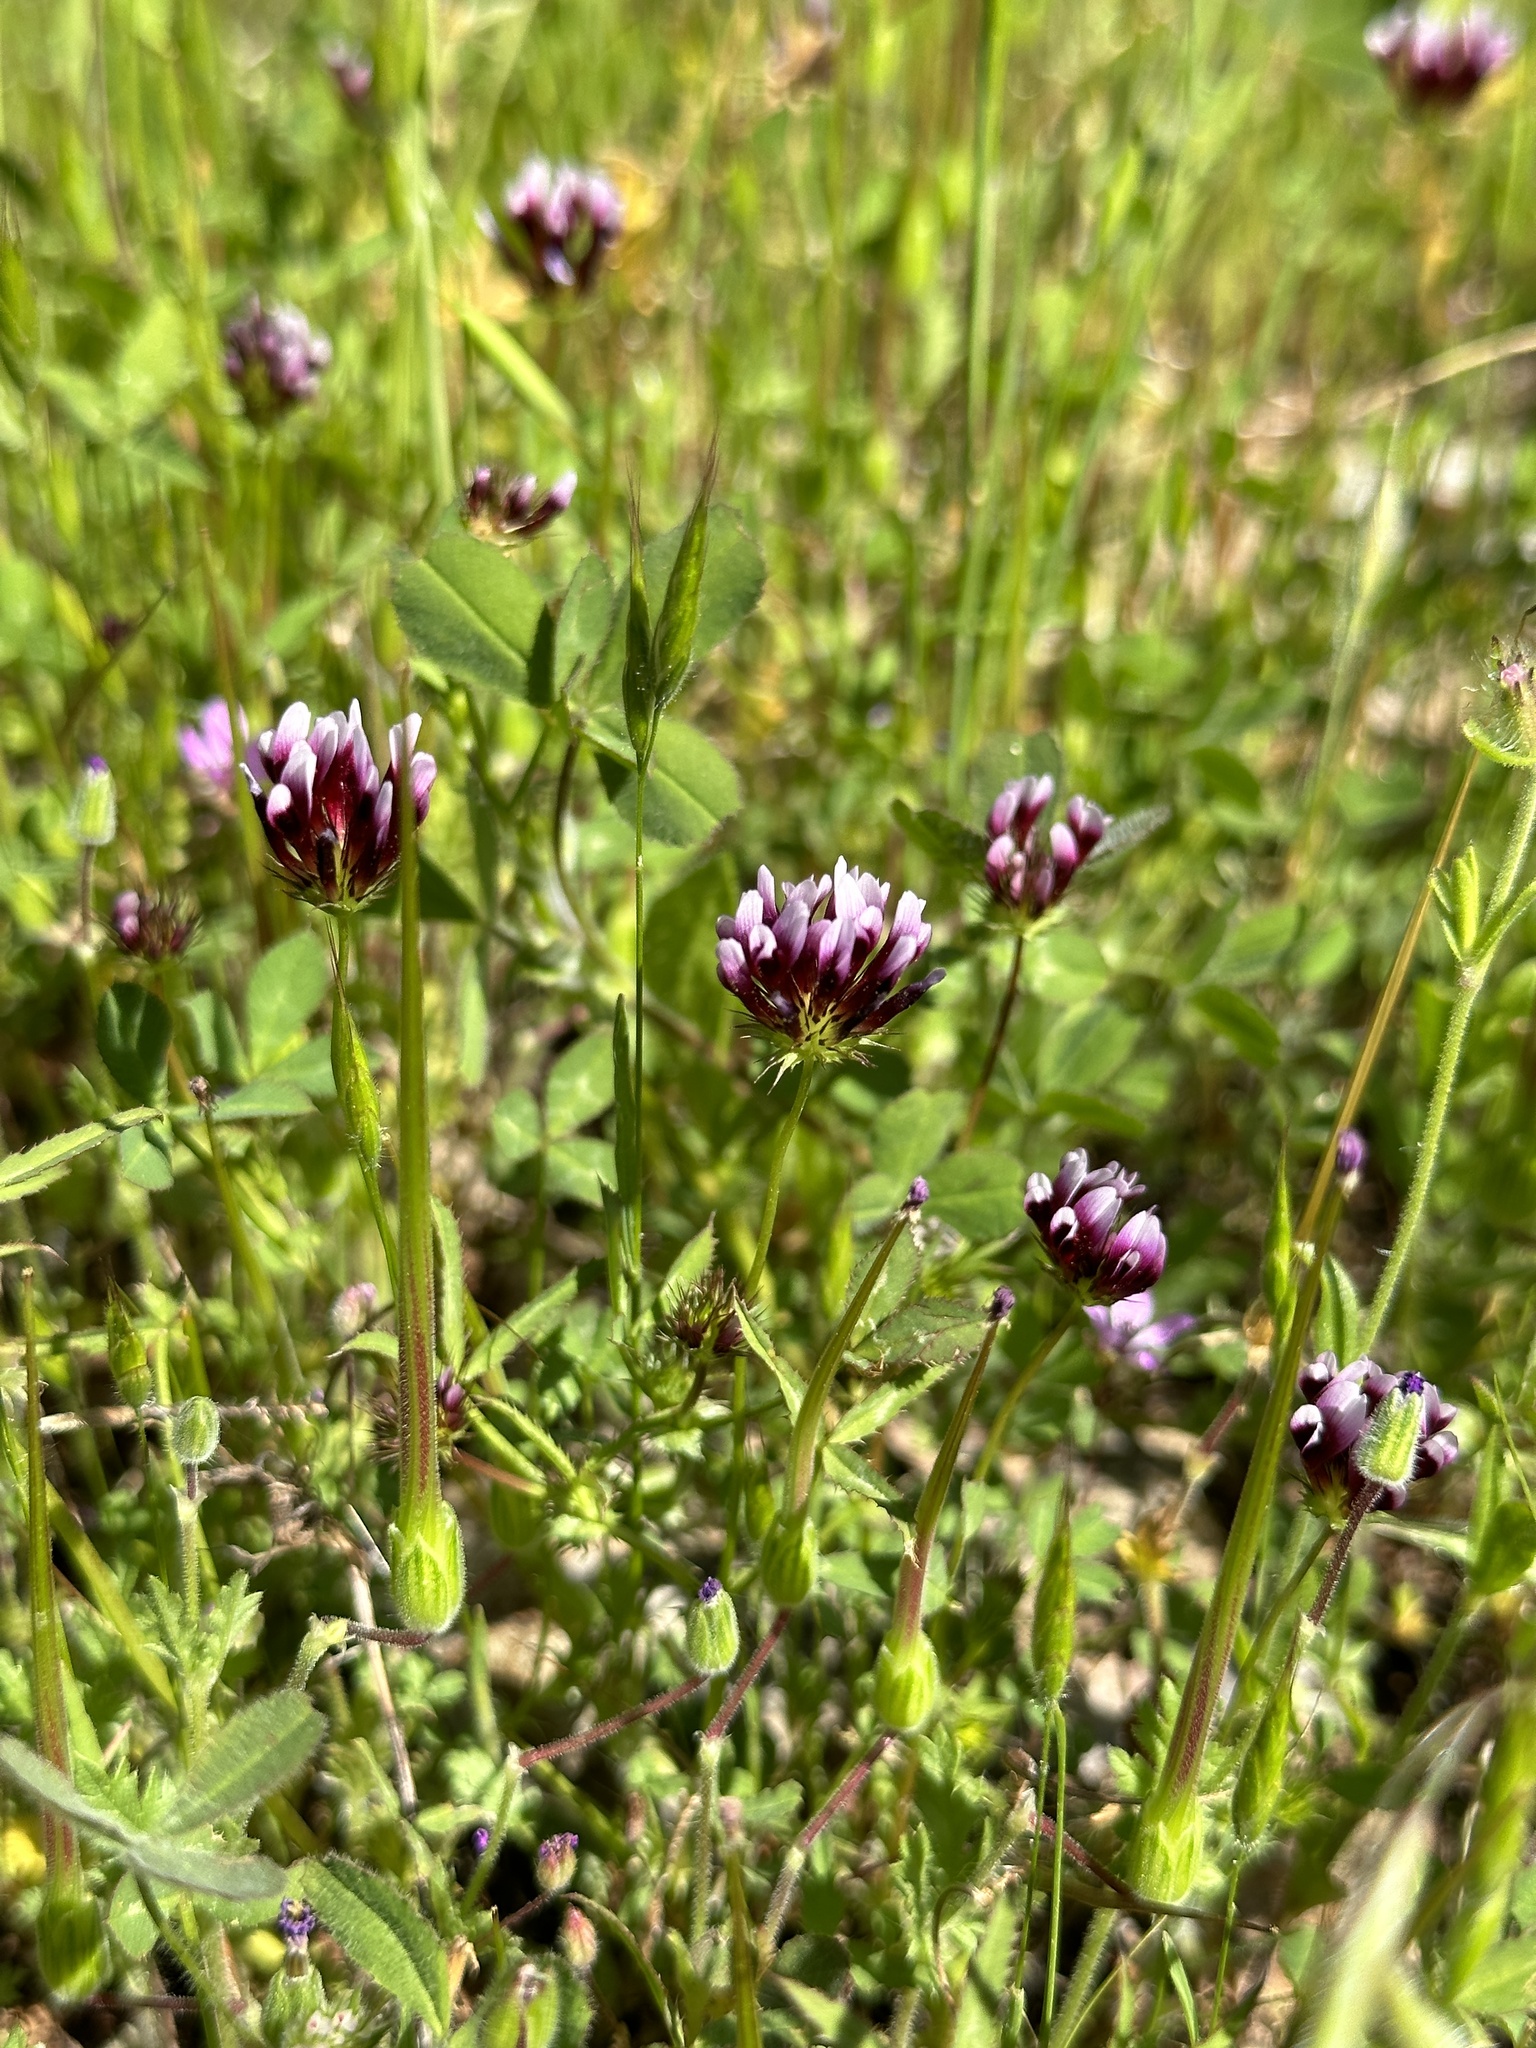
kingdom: Plantae
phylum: Tracheophyta
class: Magnoliopsida
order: Fabales
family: Fabaceae
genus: Trifolium
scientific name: Trifolium variegatum
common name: Whitetip clover
